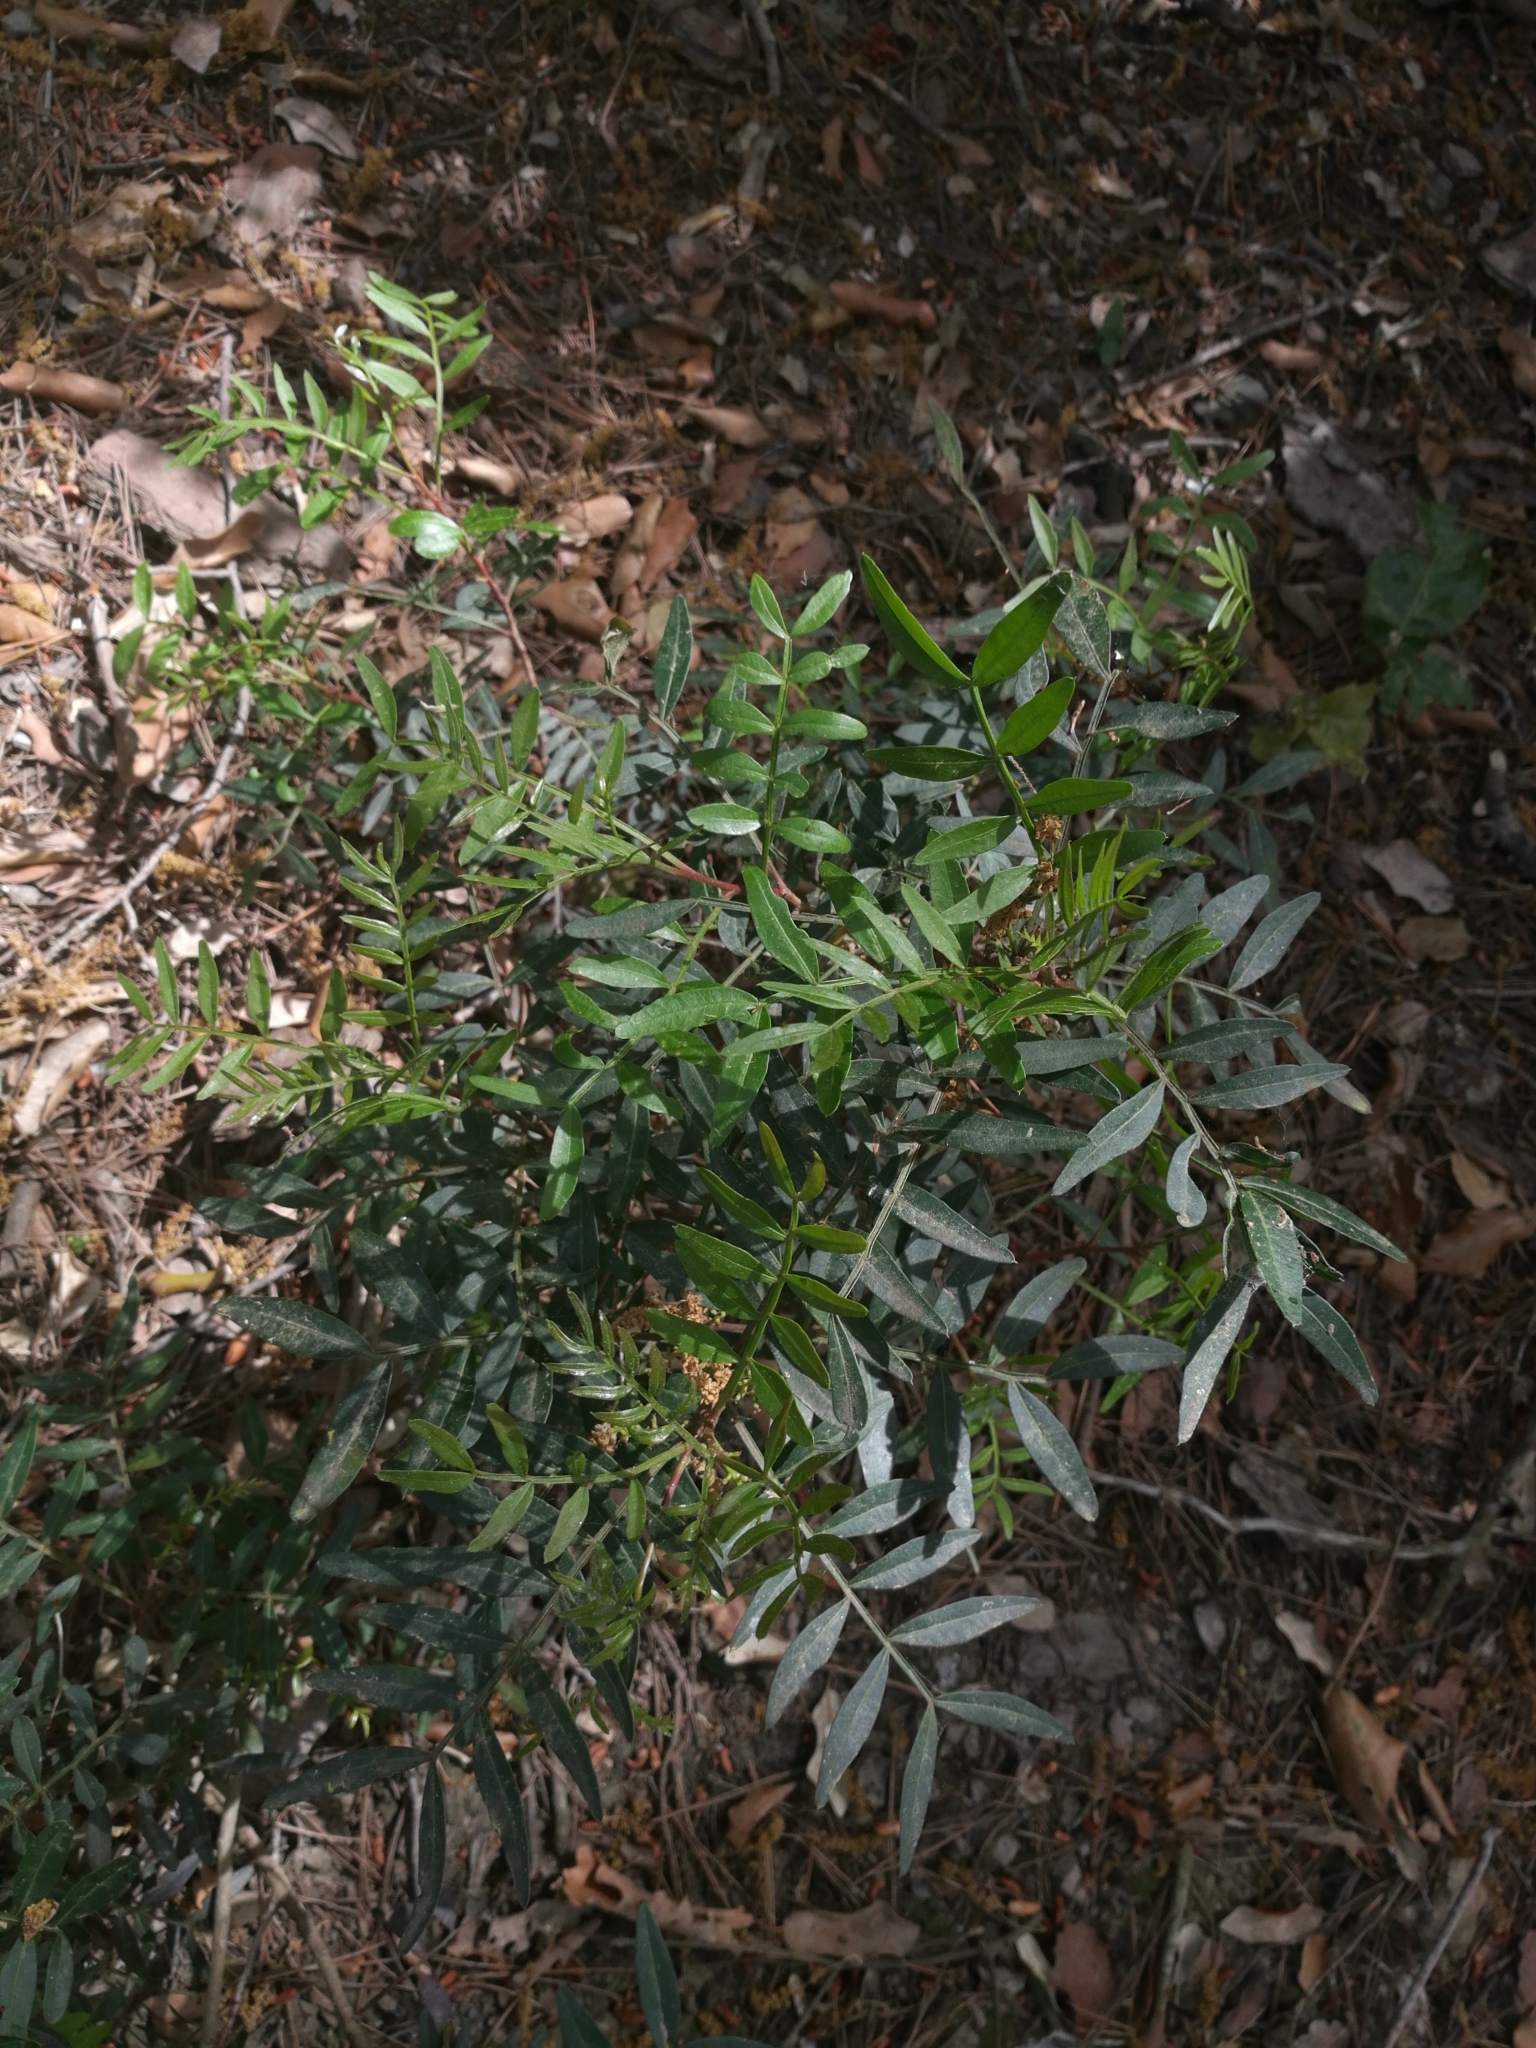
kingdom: Plantae
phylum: Tracheophyta
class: Magnoliopsida
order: Sapindales
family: Anacardiaceae
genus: Pistacia
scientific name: Pistacia lentiscus
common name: Lentisk
